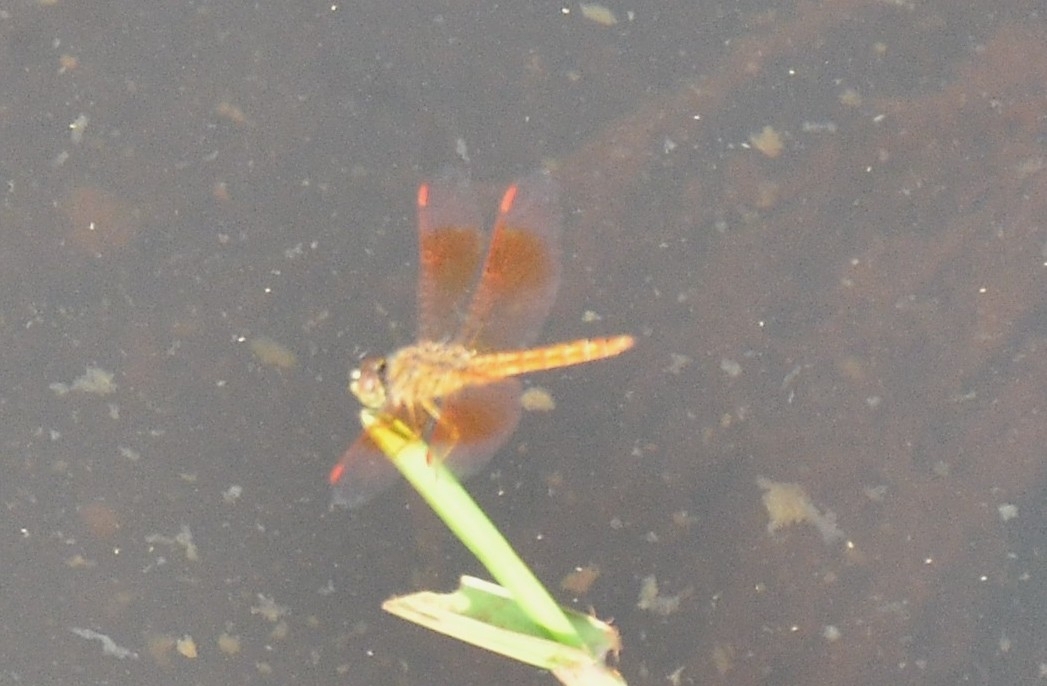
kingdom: Animalia
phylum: Arthropoda
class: Insecta
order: Odonata
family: Libellulidae
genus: Brachythemis
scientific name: Brachythemis contaminata
